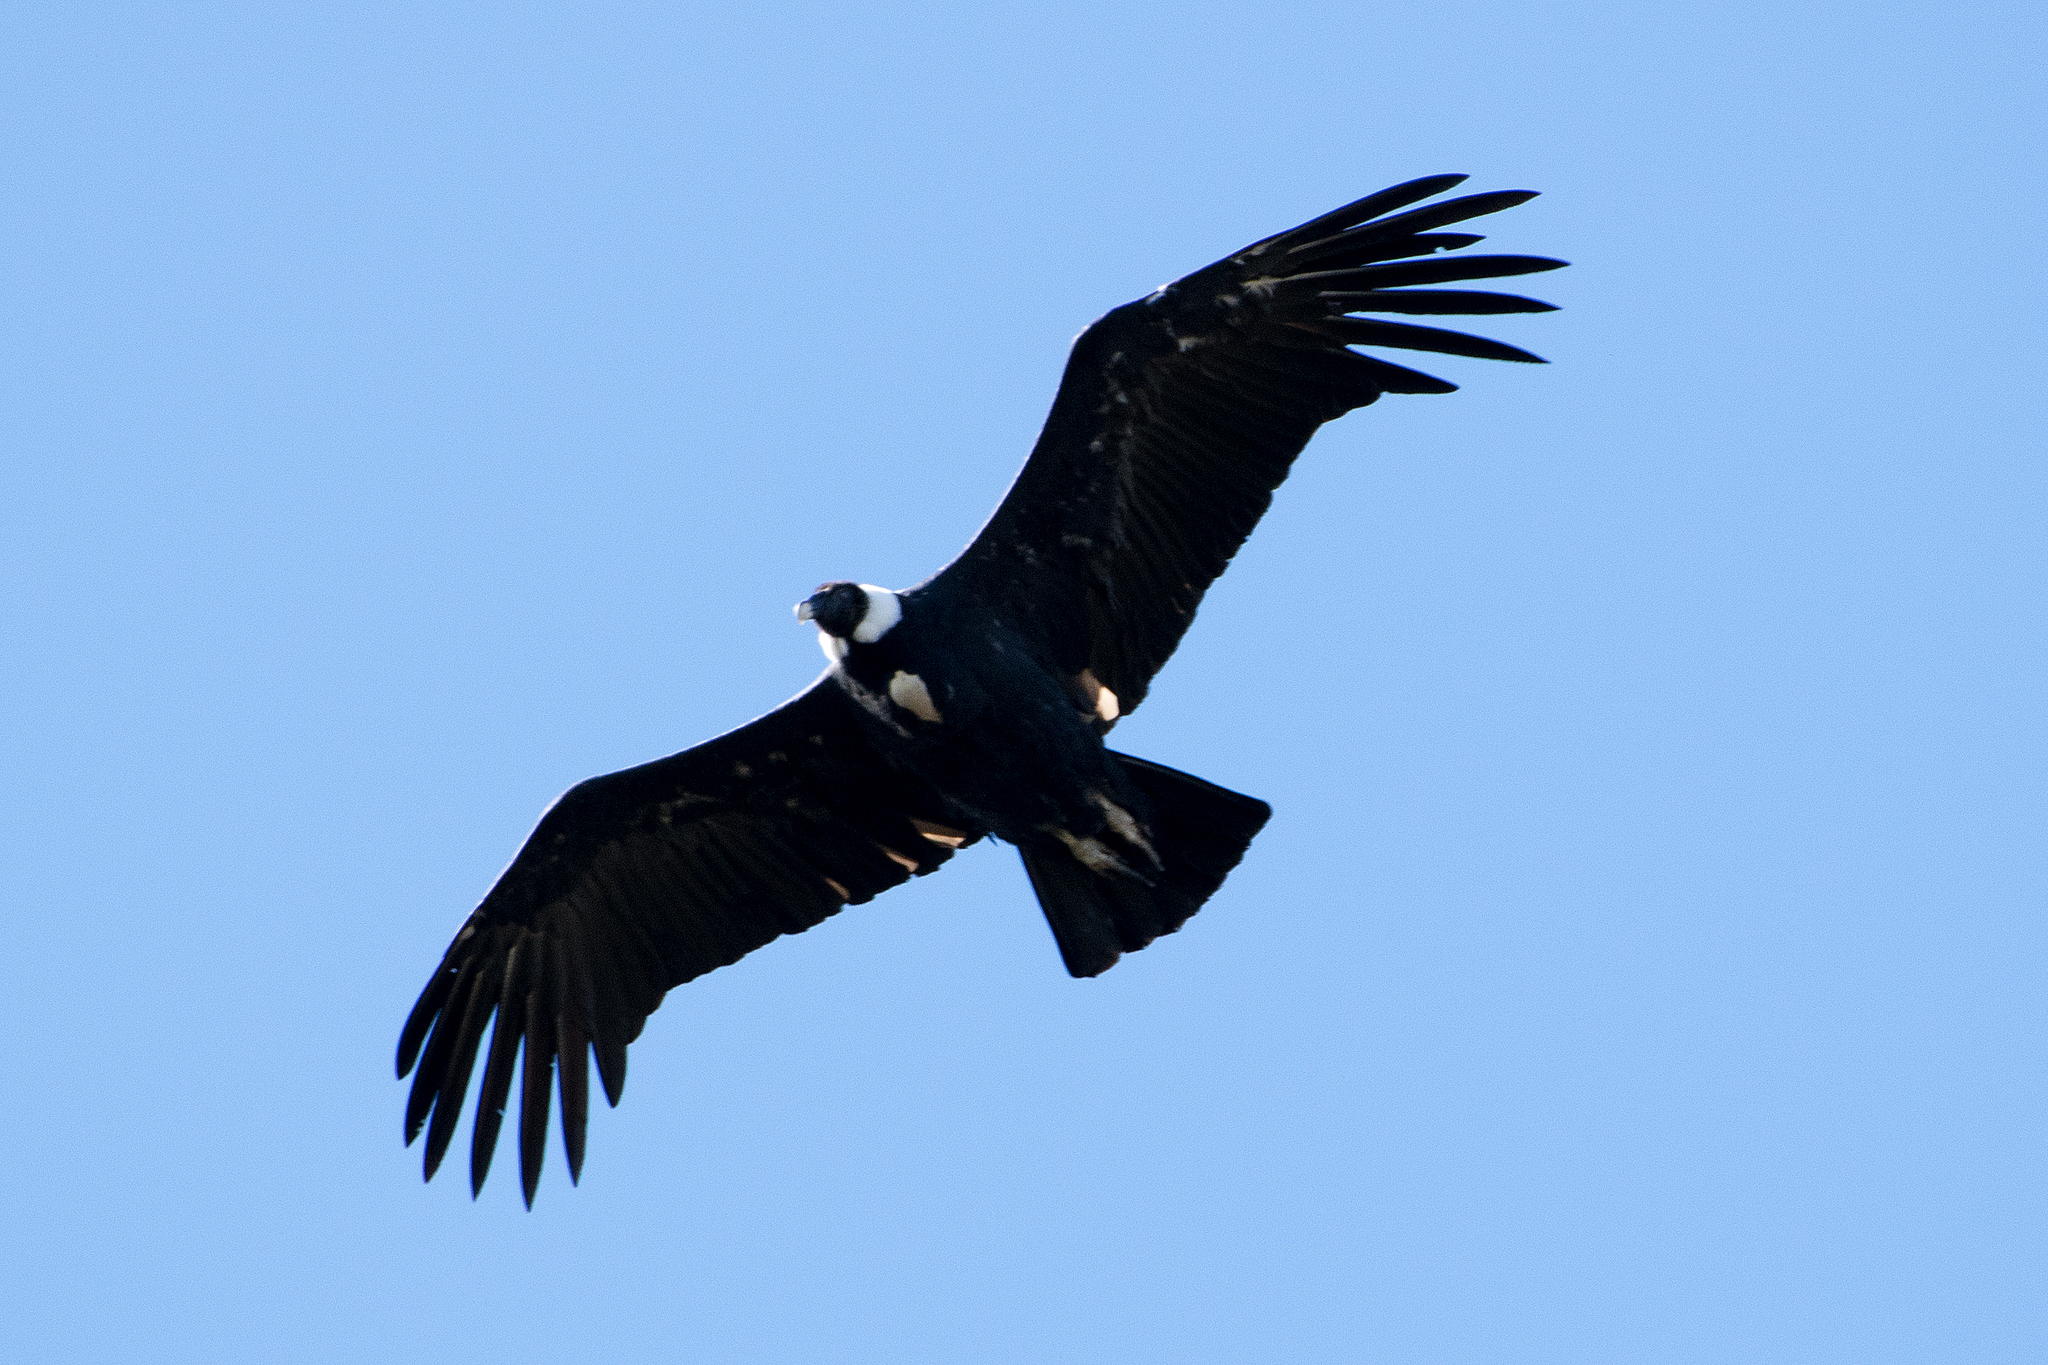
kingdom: Animalia
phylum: Chordata
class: Aves
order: Accipitriformes
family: Cathartidae
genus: Vultur
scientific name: Vultur gryphus
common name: Andean condor
